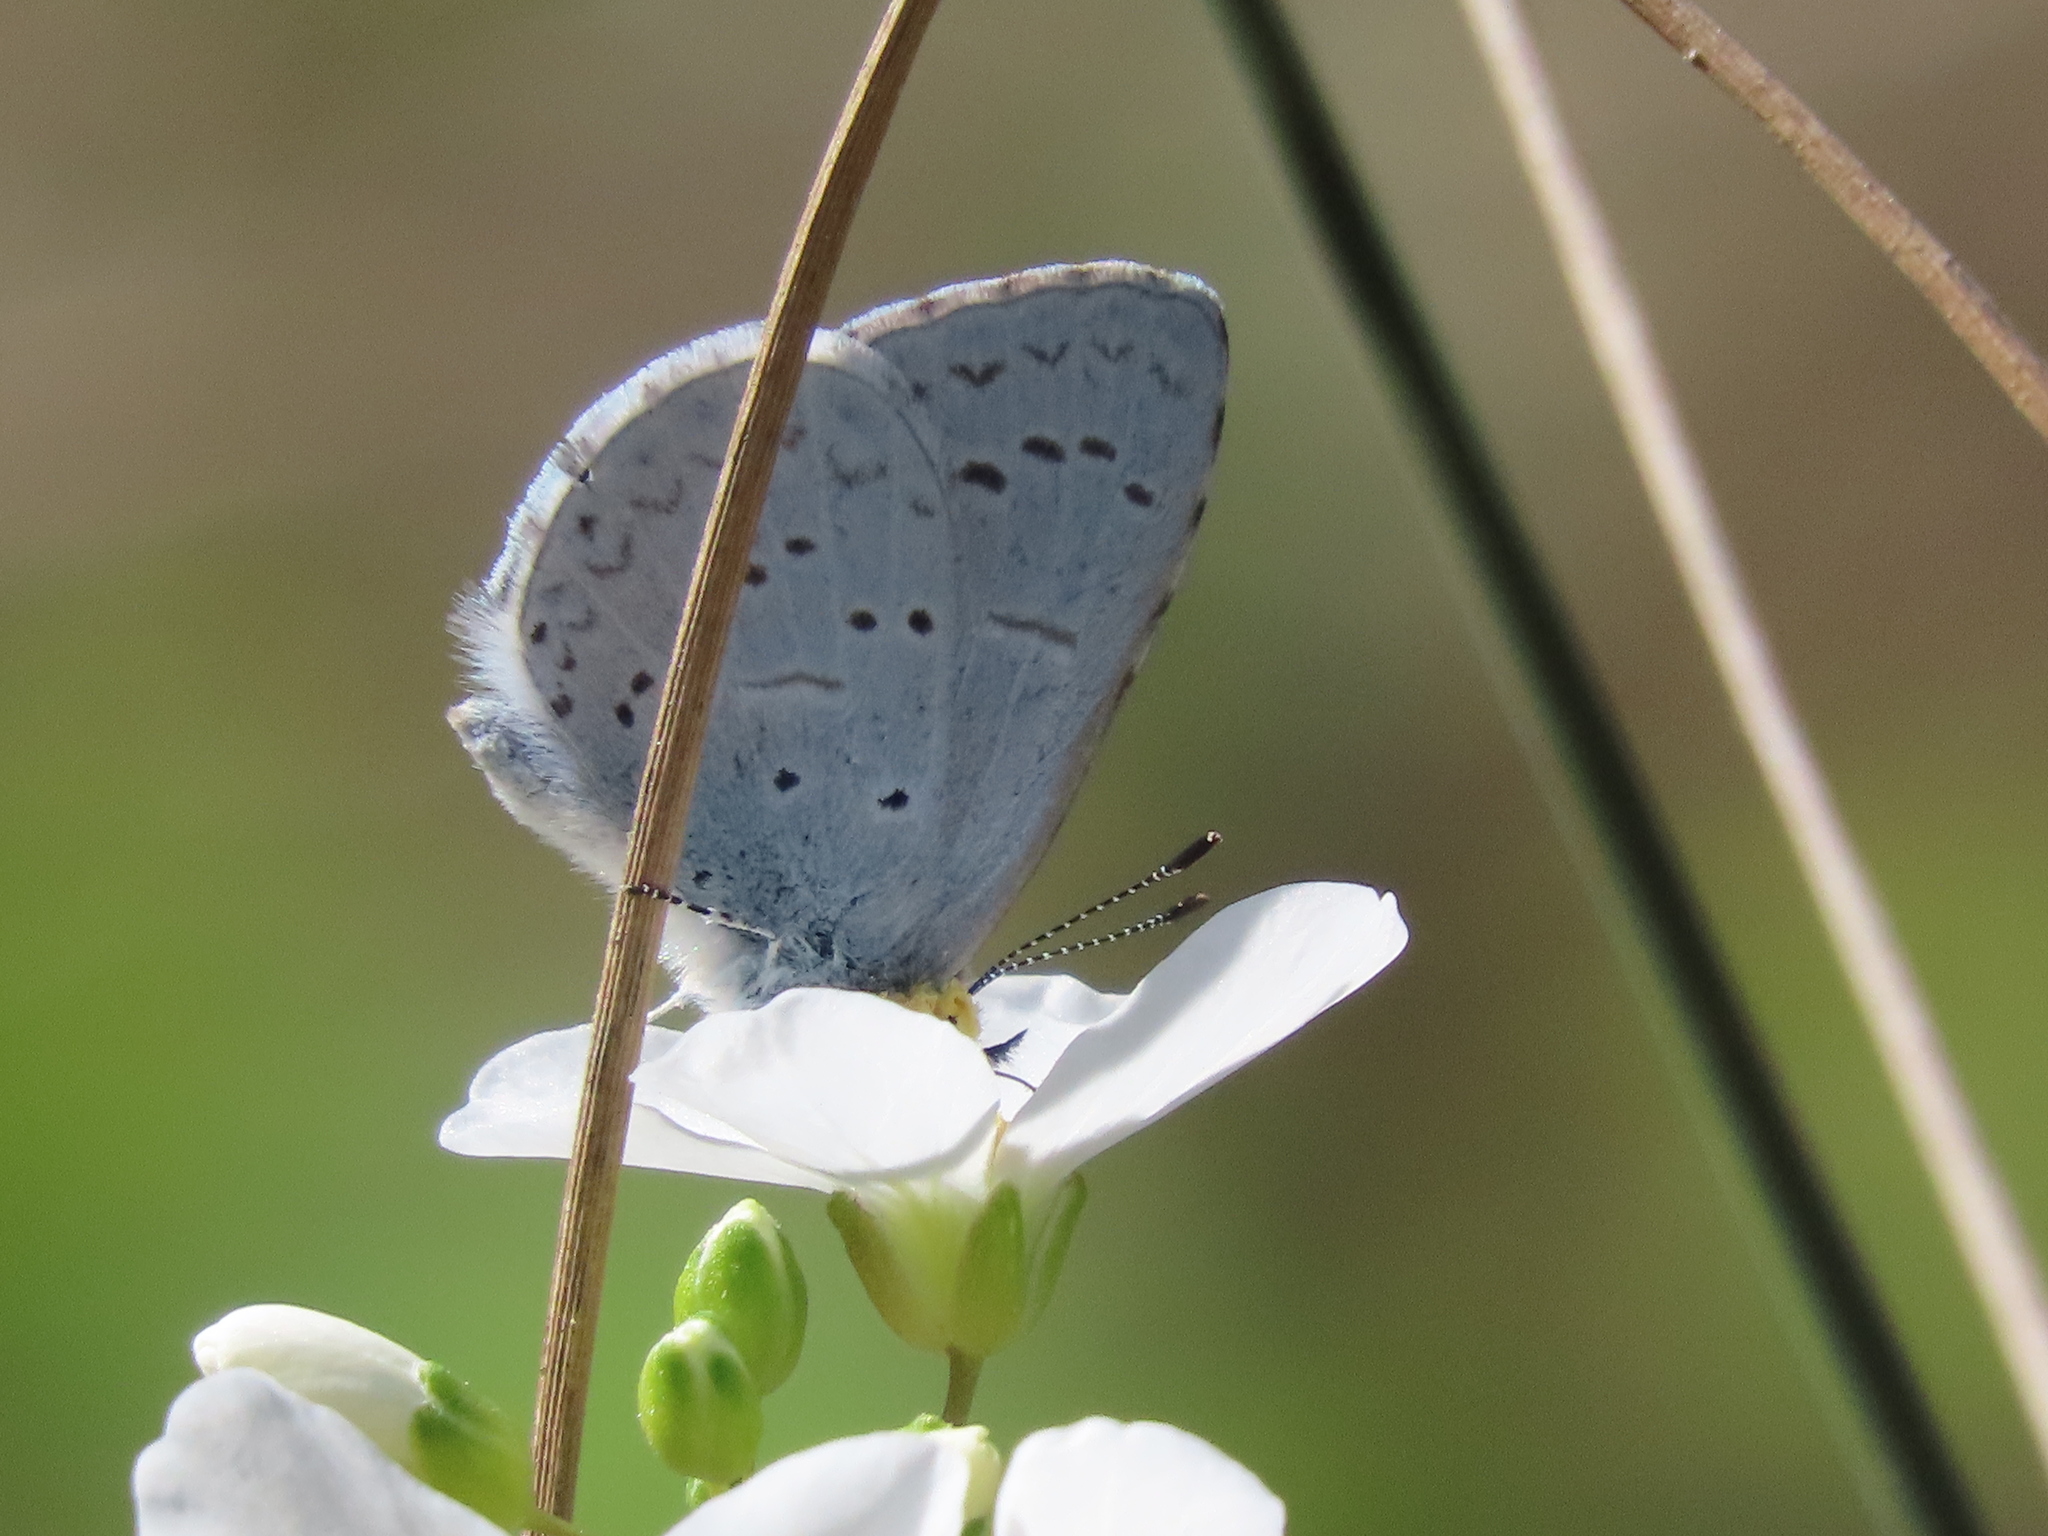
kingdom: Animalia
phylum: Arthropoda
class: Insecta
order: Lepidoptera
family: Lycaenidae
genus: Celastrina
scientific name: Celastrina ladon
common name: Spring azure
